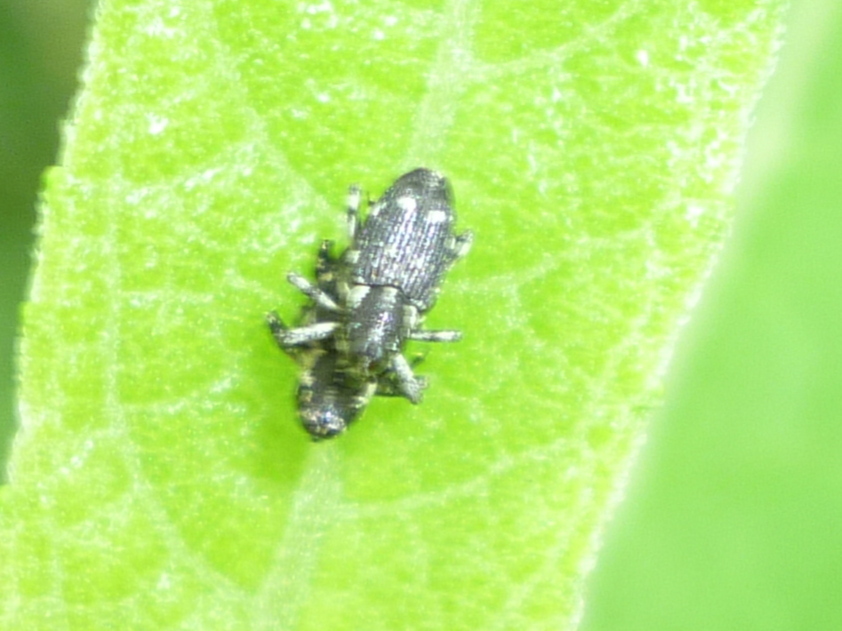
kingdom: Animalia
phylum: Arthropoda
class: Insecta
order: Coleoptera
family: Curculionidae
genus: Cylindrocopturus
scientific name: Cylindrocopturus quercus
